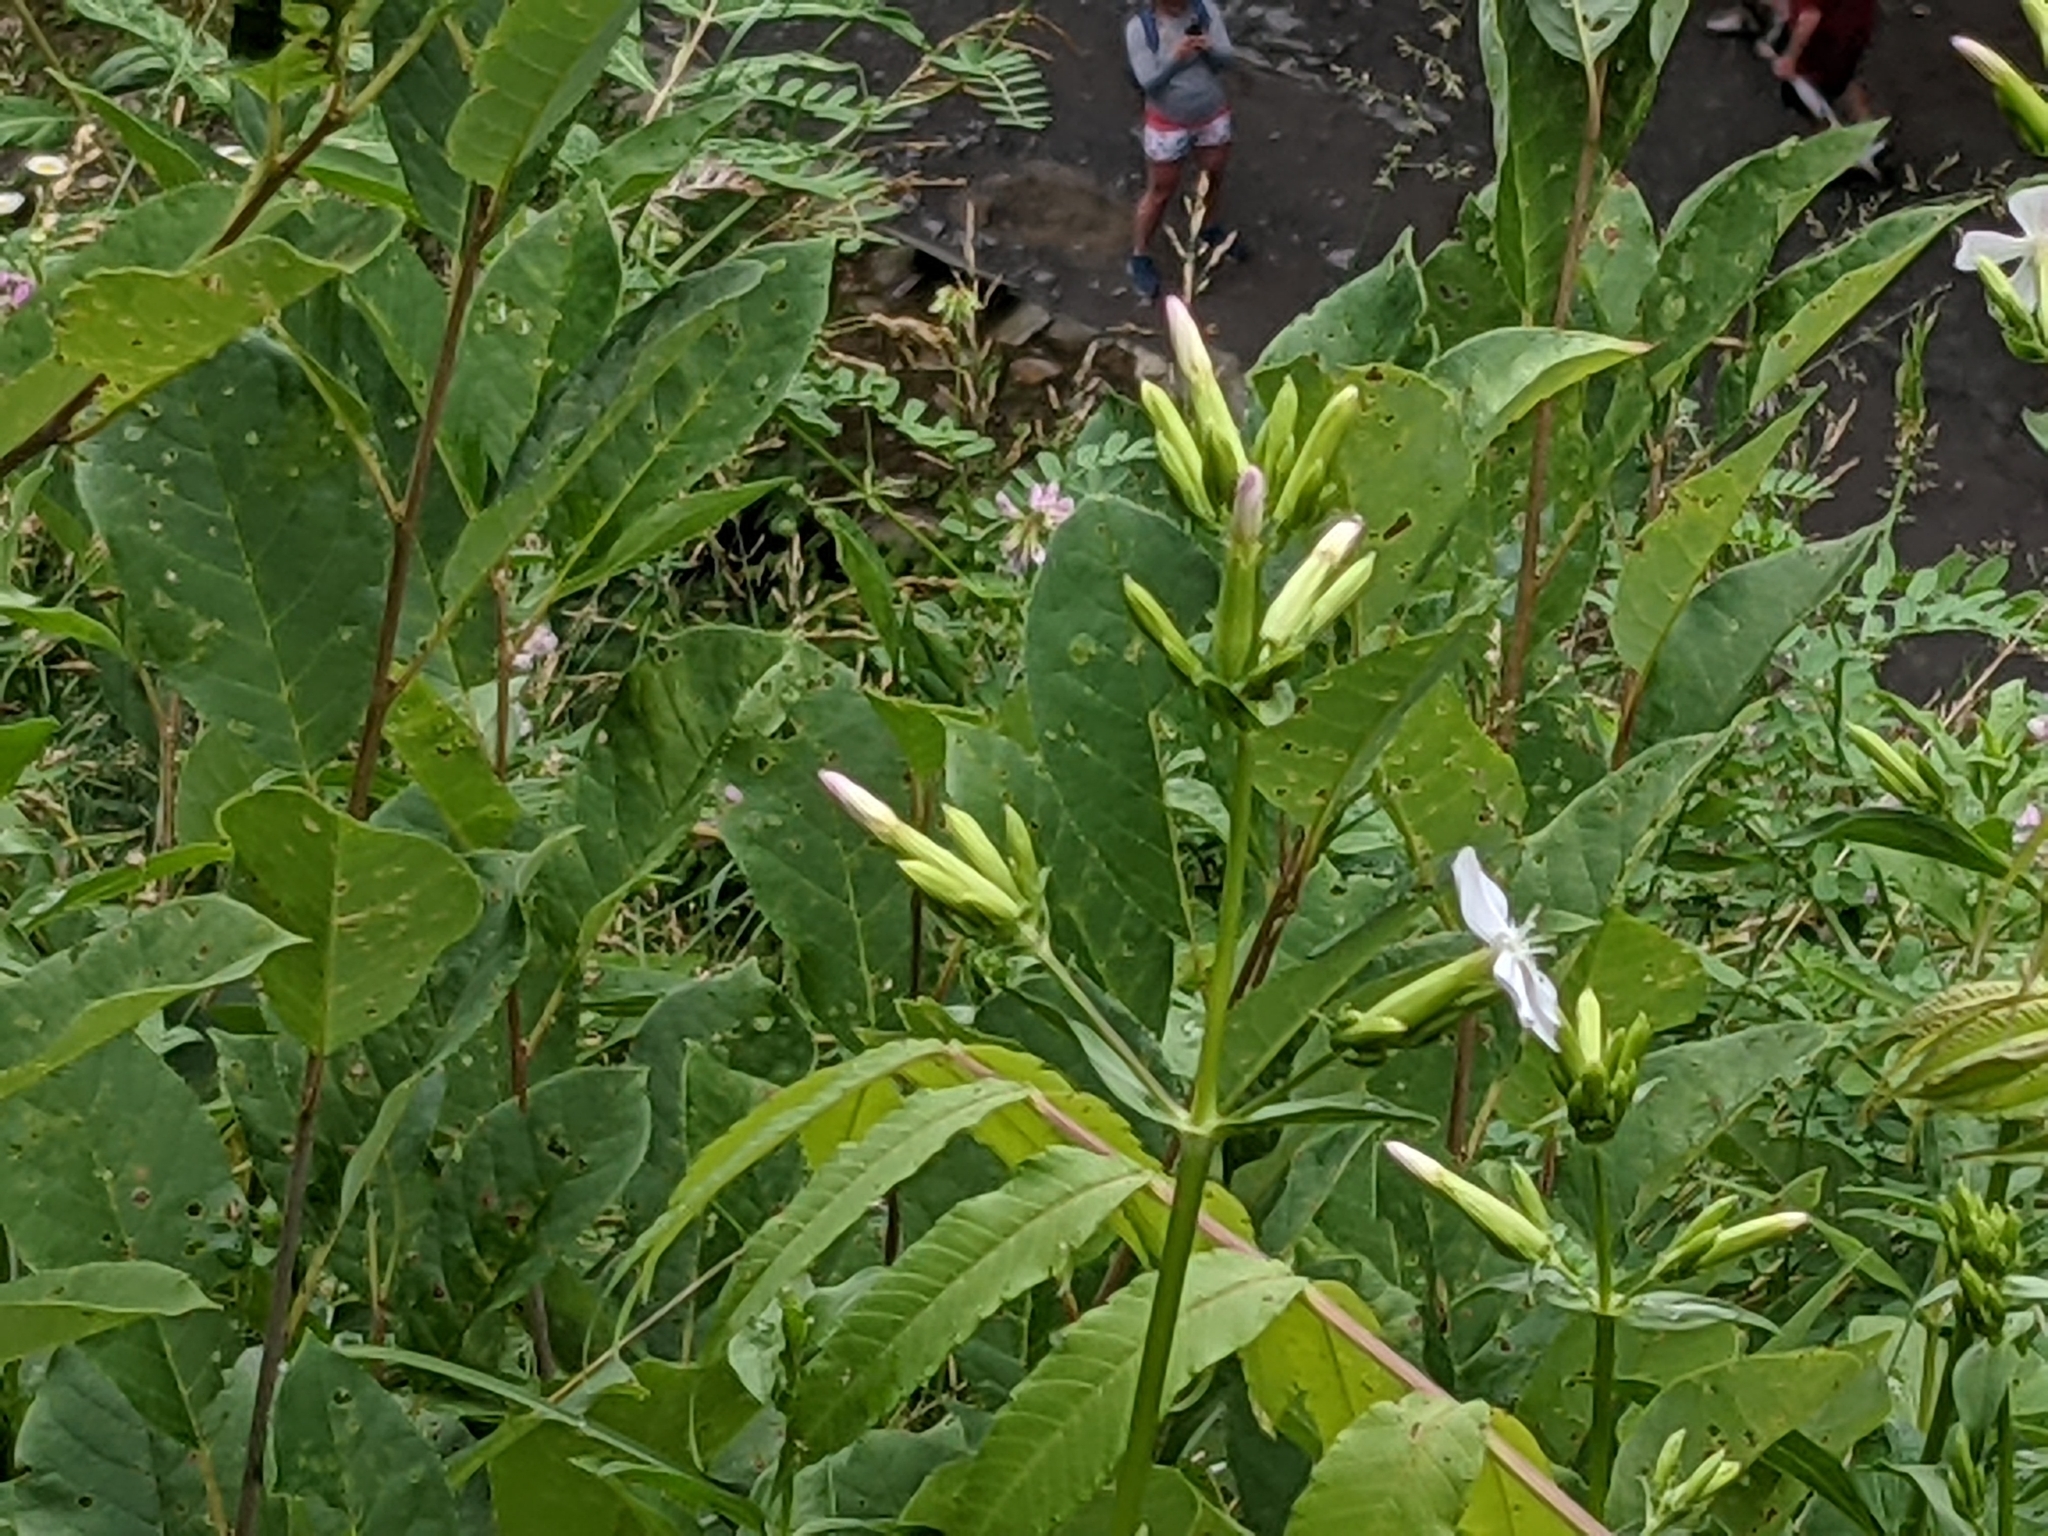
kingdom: Plantae
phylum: Tracheophyta
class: Magnoliopsida
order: Caryophyllales
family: Caryophyllaceae
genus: Saponaria
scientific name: Saponaria officinalis
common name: Soapwort
